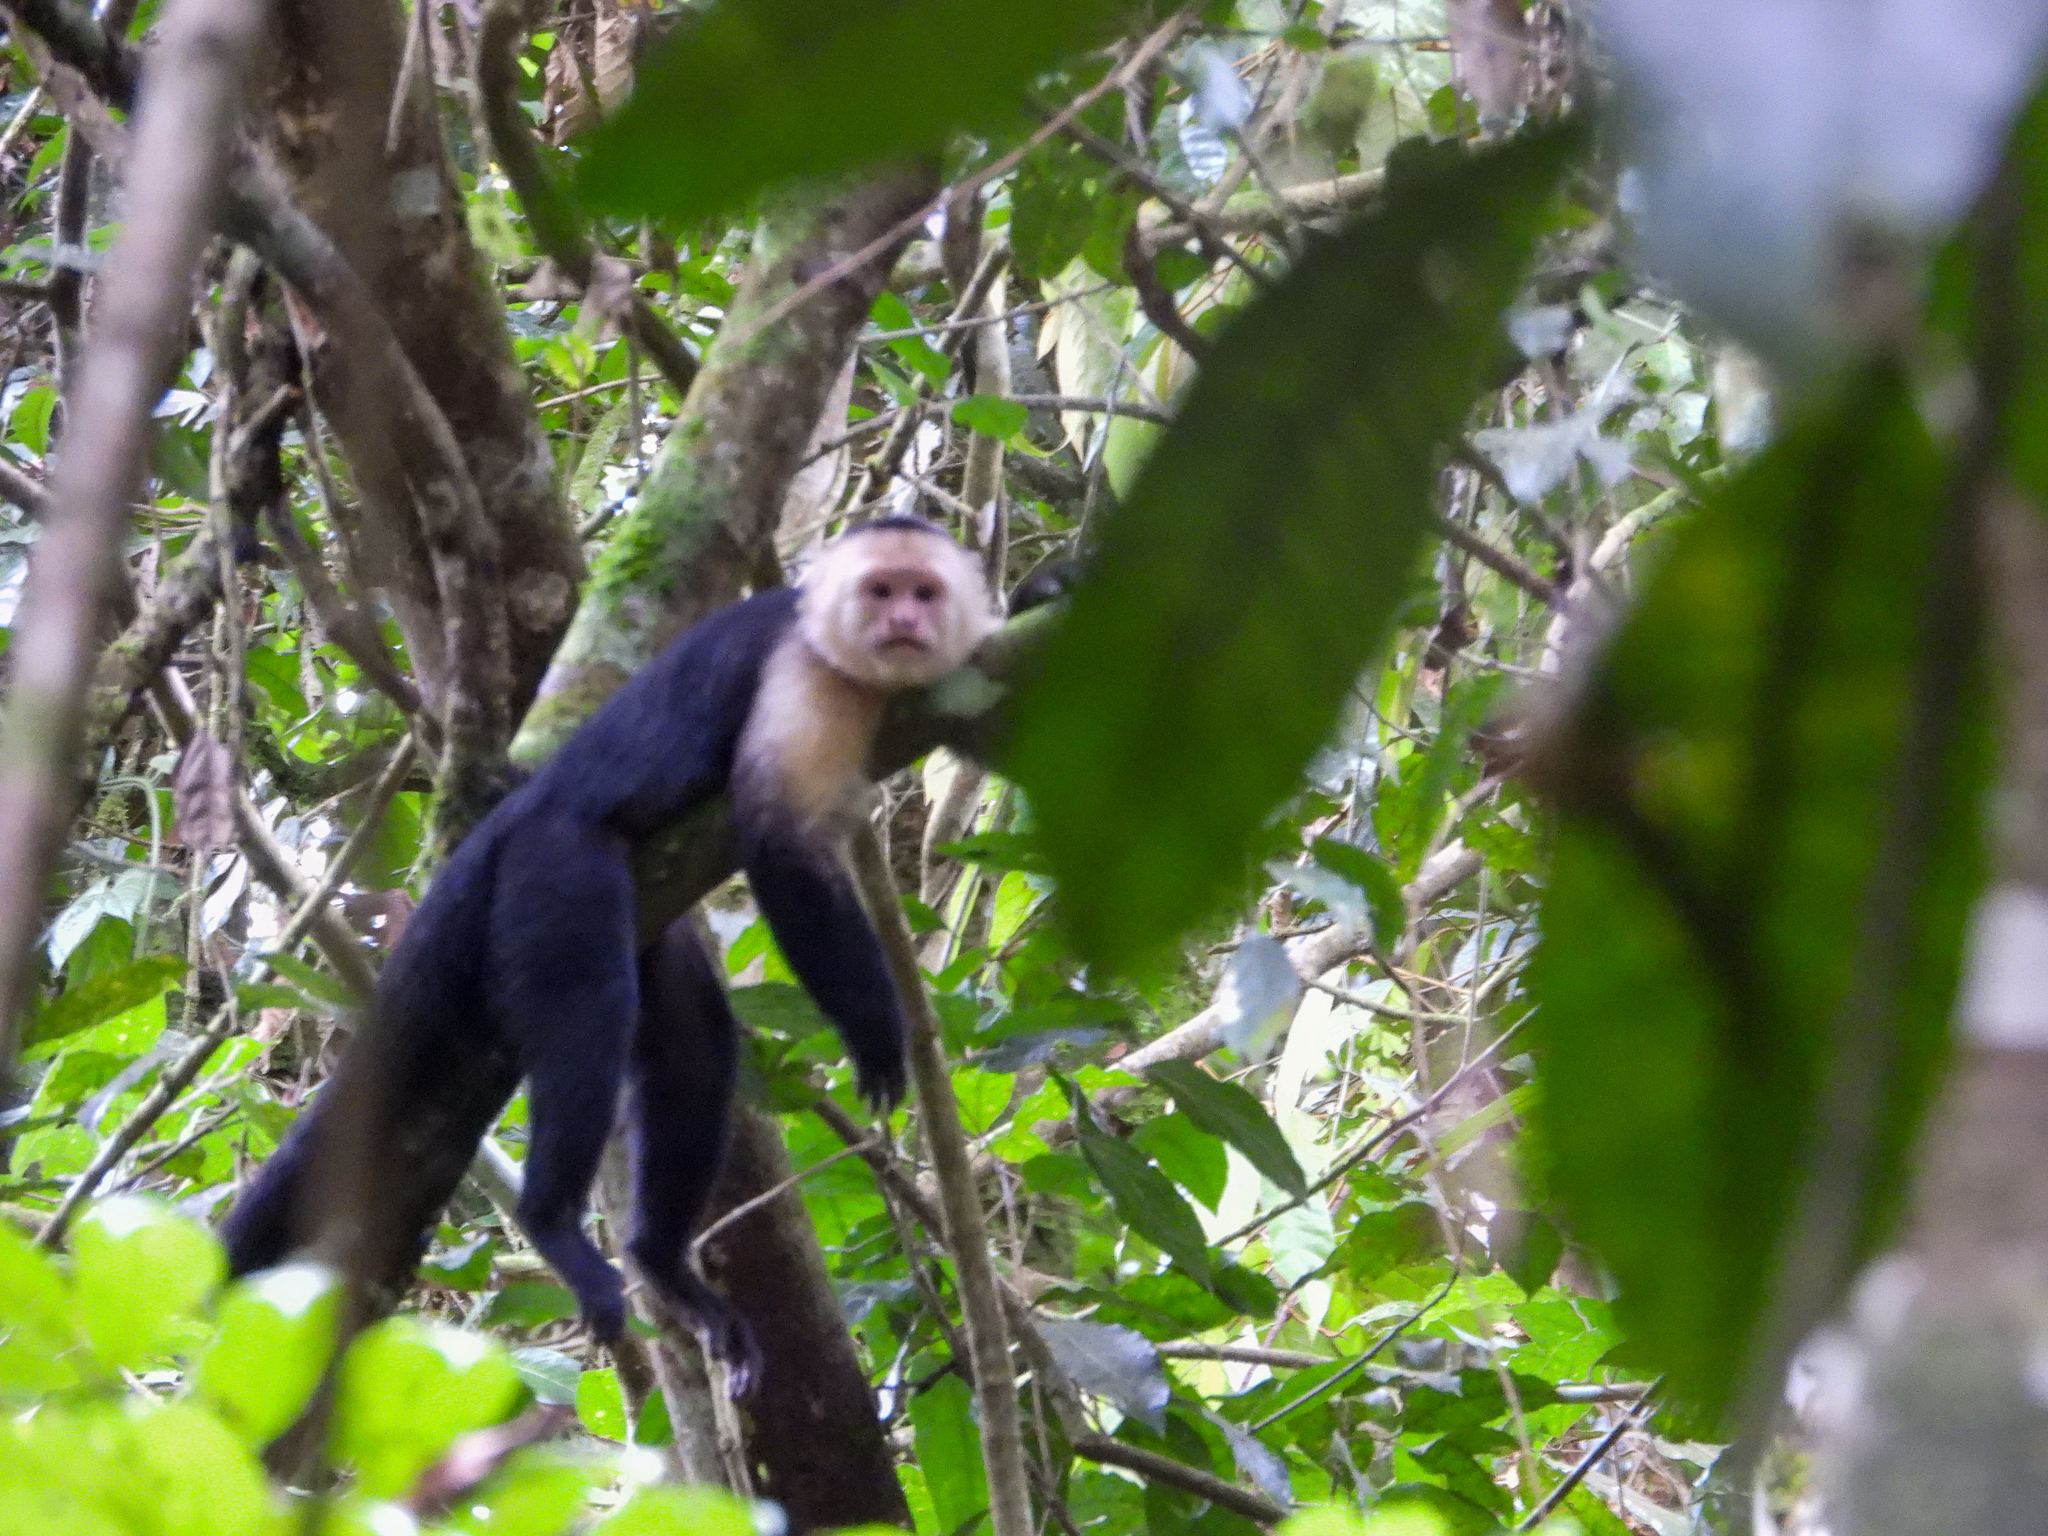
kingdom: Animalia
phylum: Chordata
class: Mammalia
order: Primates
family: Cebidae
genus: Cebus
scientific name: Cebus imitator
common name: Panamanian white-faced capuchin
